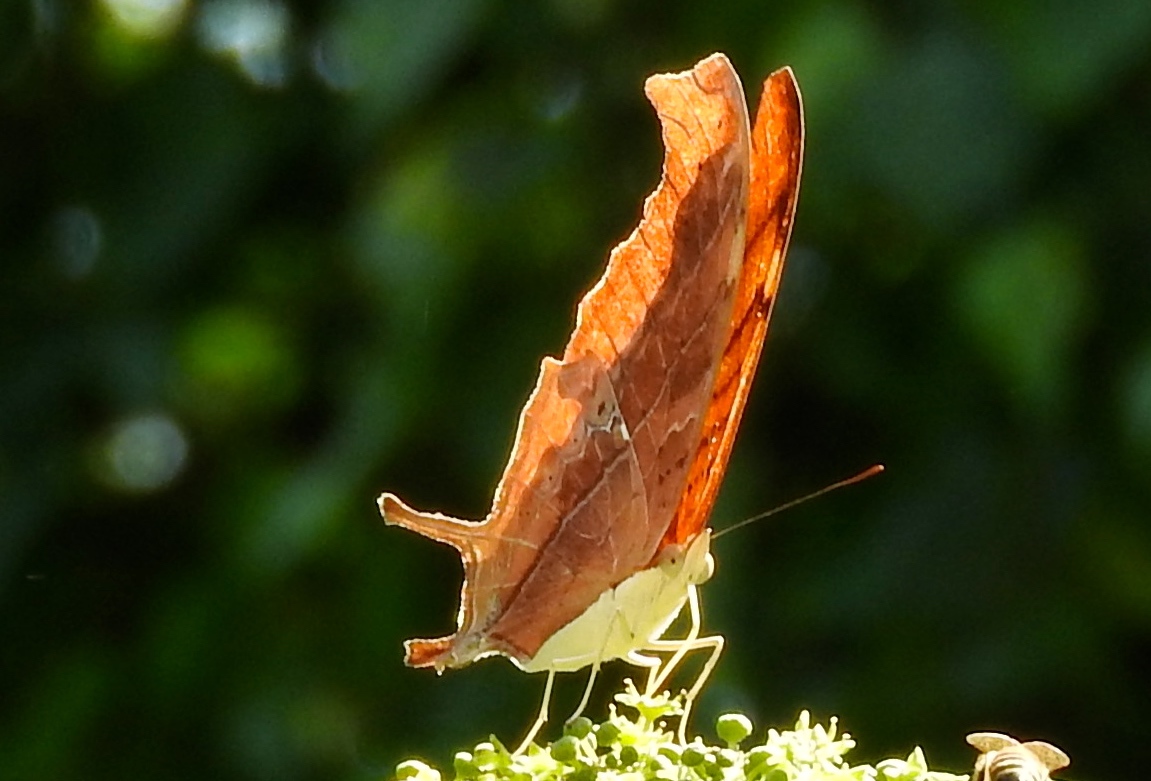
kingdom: Animalia
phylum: Arthropoda
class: Insecta
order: Lepidoptera
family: Nymphalidae
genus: Marpesia
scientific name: Marpesia petreus
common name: Red dagger wing
